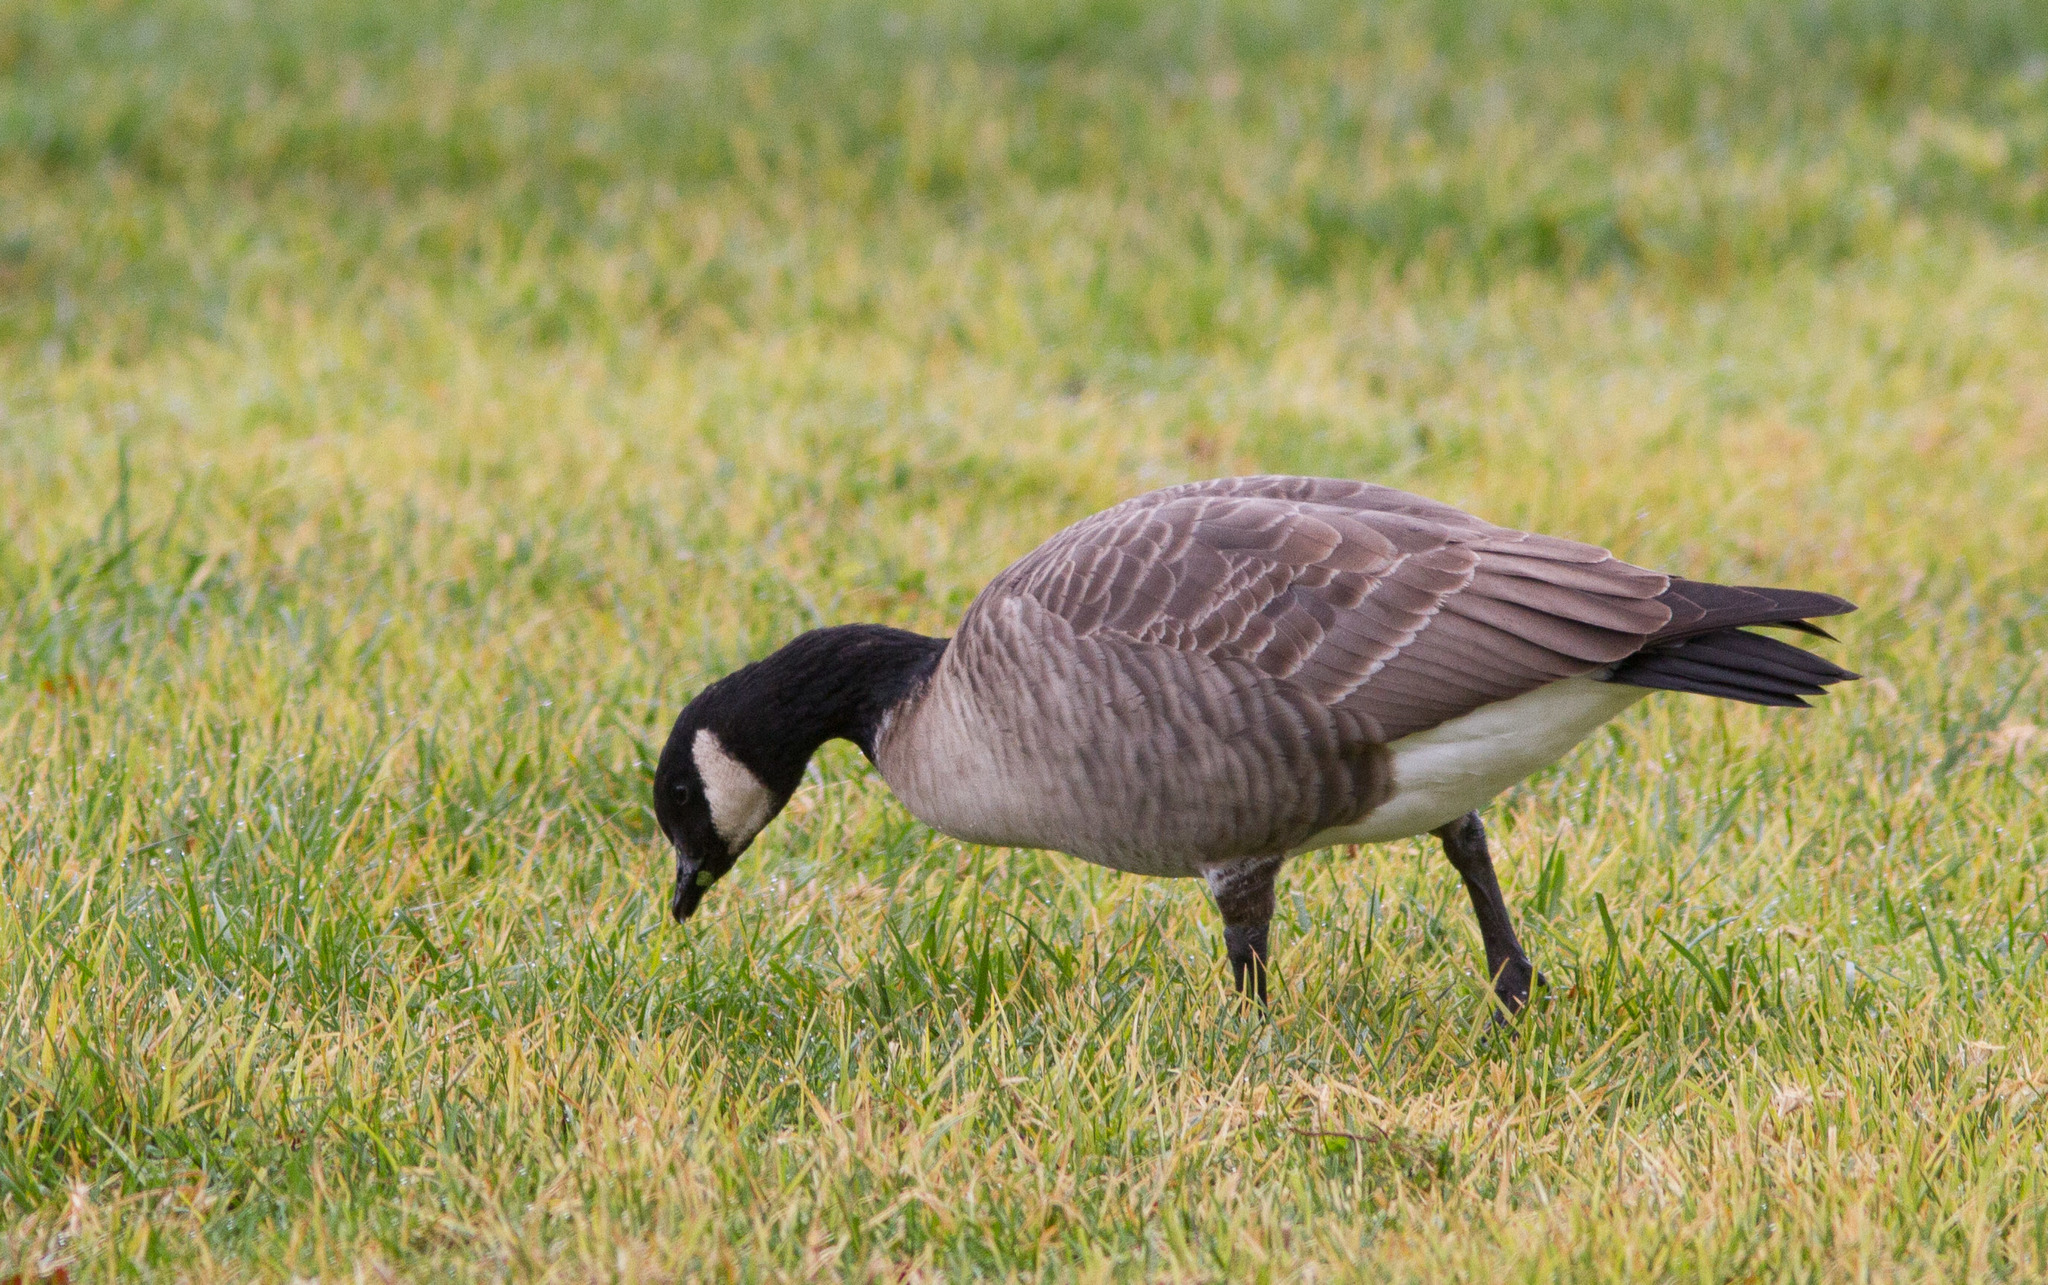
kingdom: Animalia
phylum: Chordata
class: Aves
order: Anseriformes
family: Anatidae
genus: Branta
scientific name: Branta hutchinsii
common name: Cackling goose
